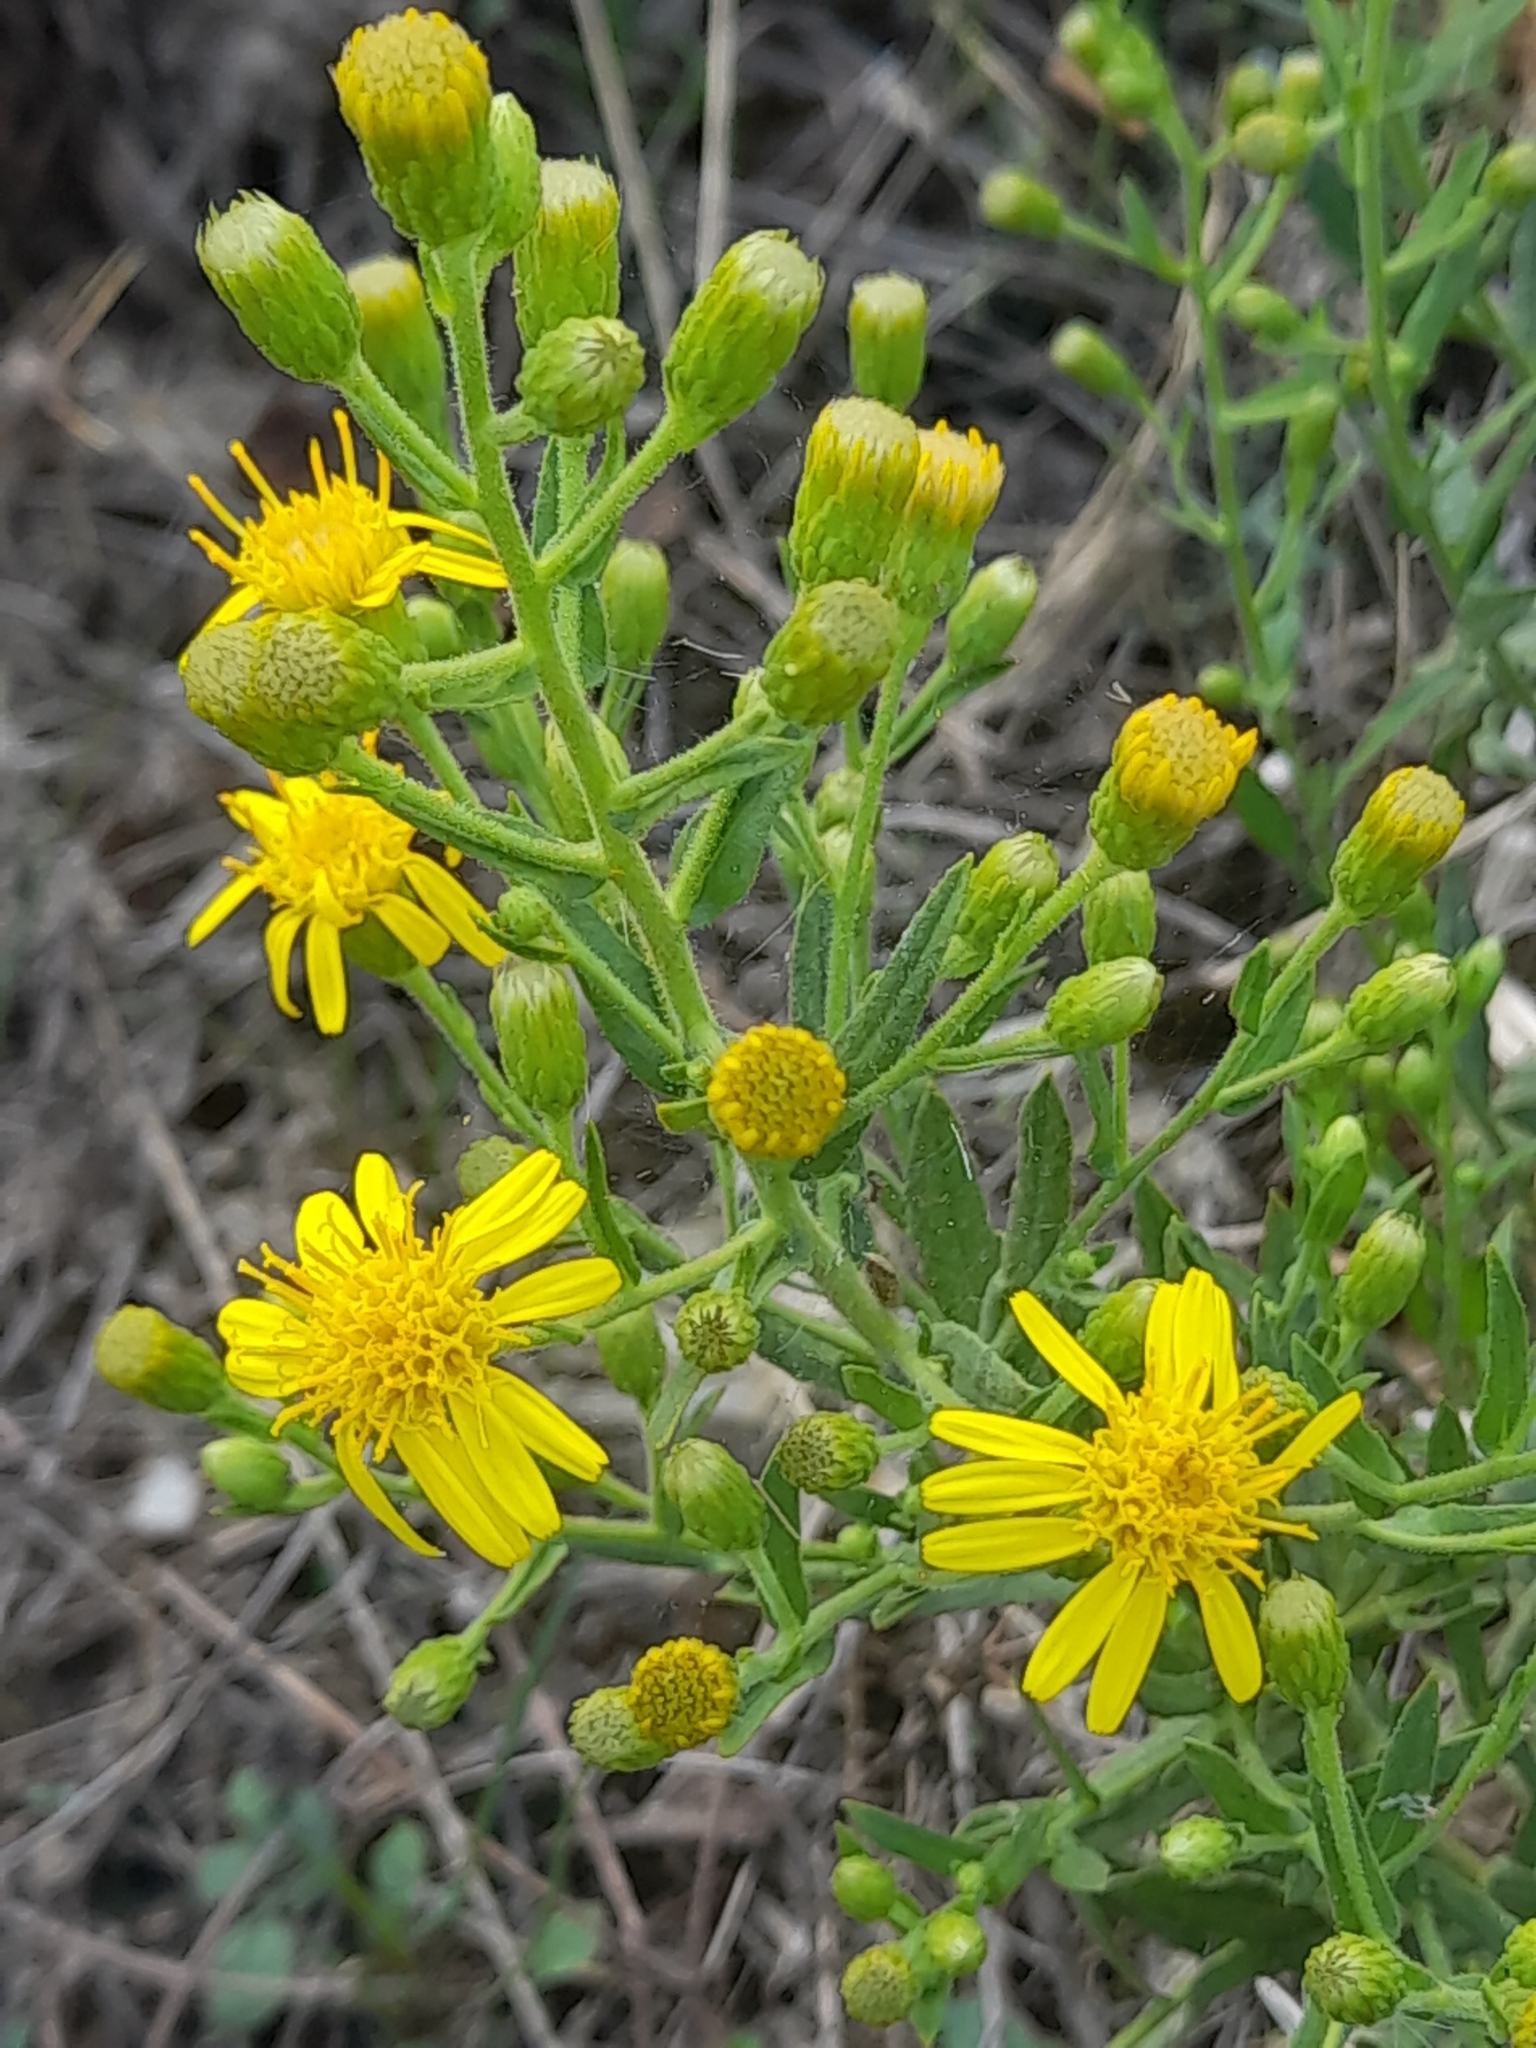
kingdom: Plantae
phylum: Tracheophyta
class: Magnoliopsida
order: Asterales
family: Asteraceae
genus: Dittrichia
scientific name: Dittrichia viscosa
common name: Woody fleabane
